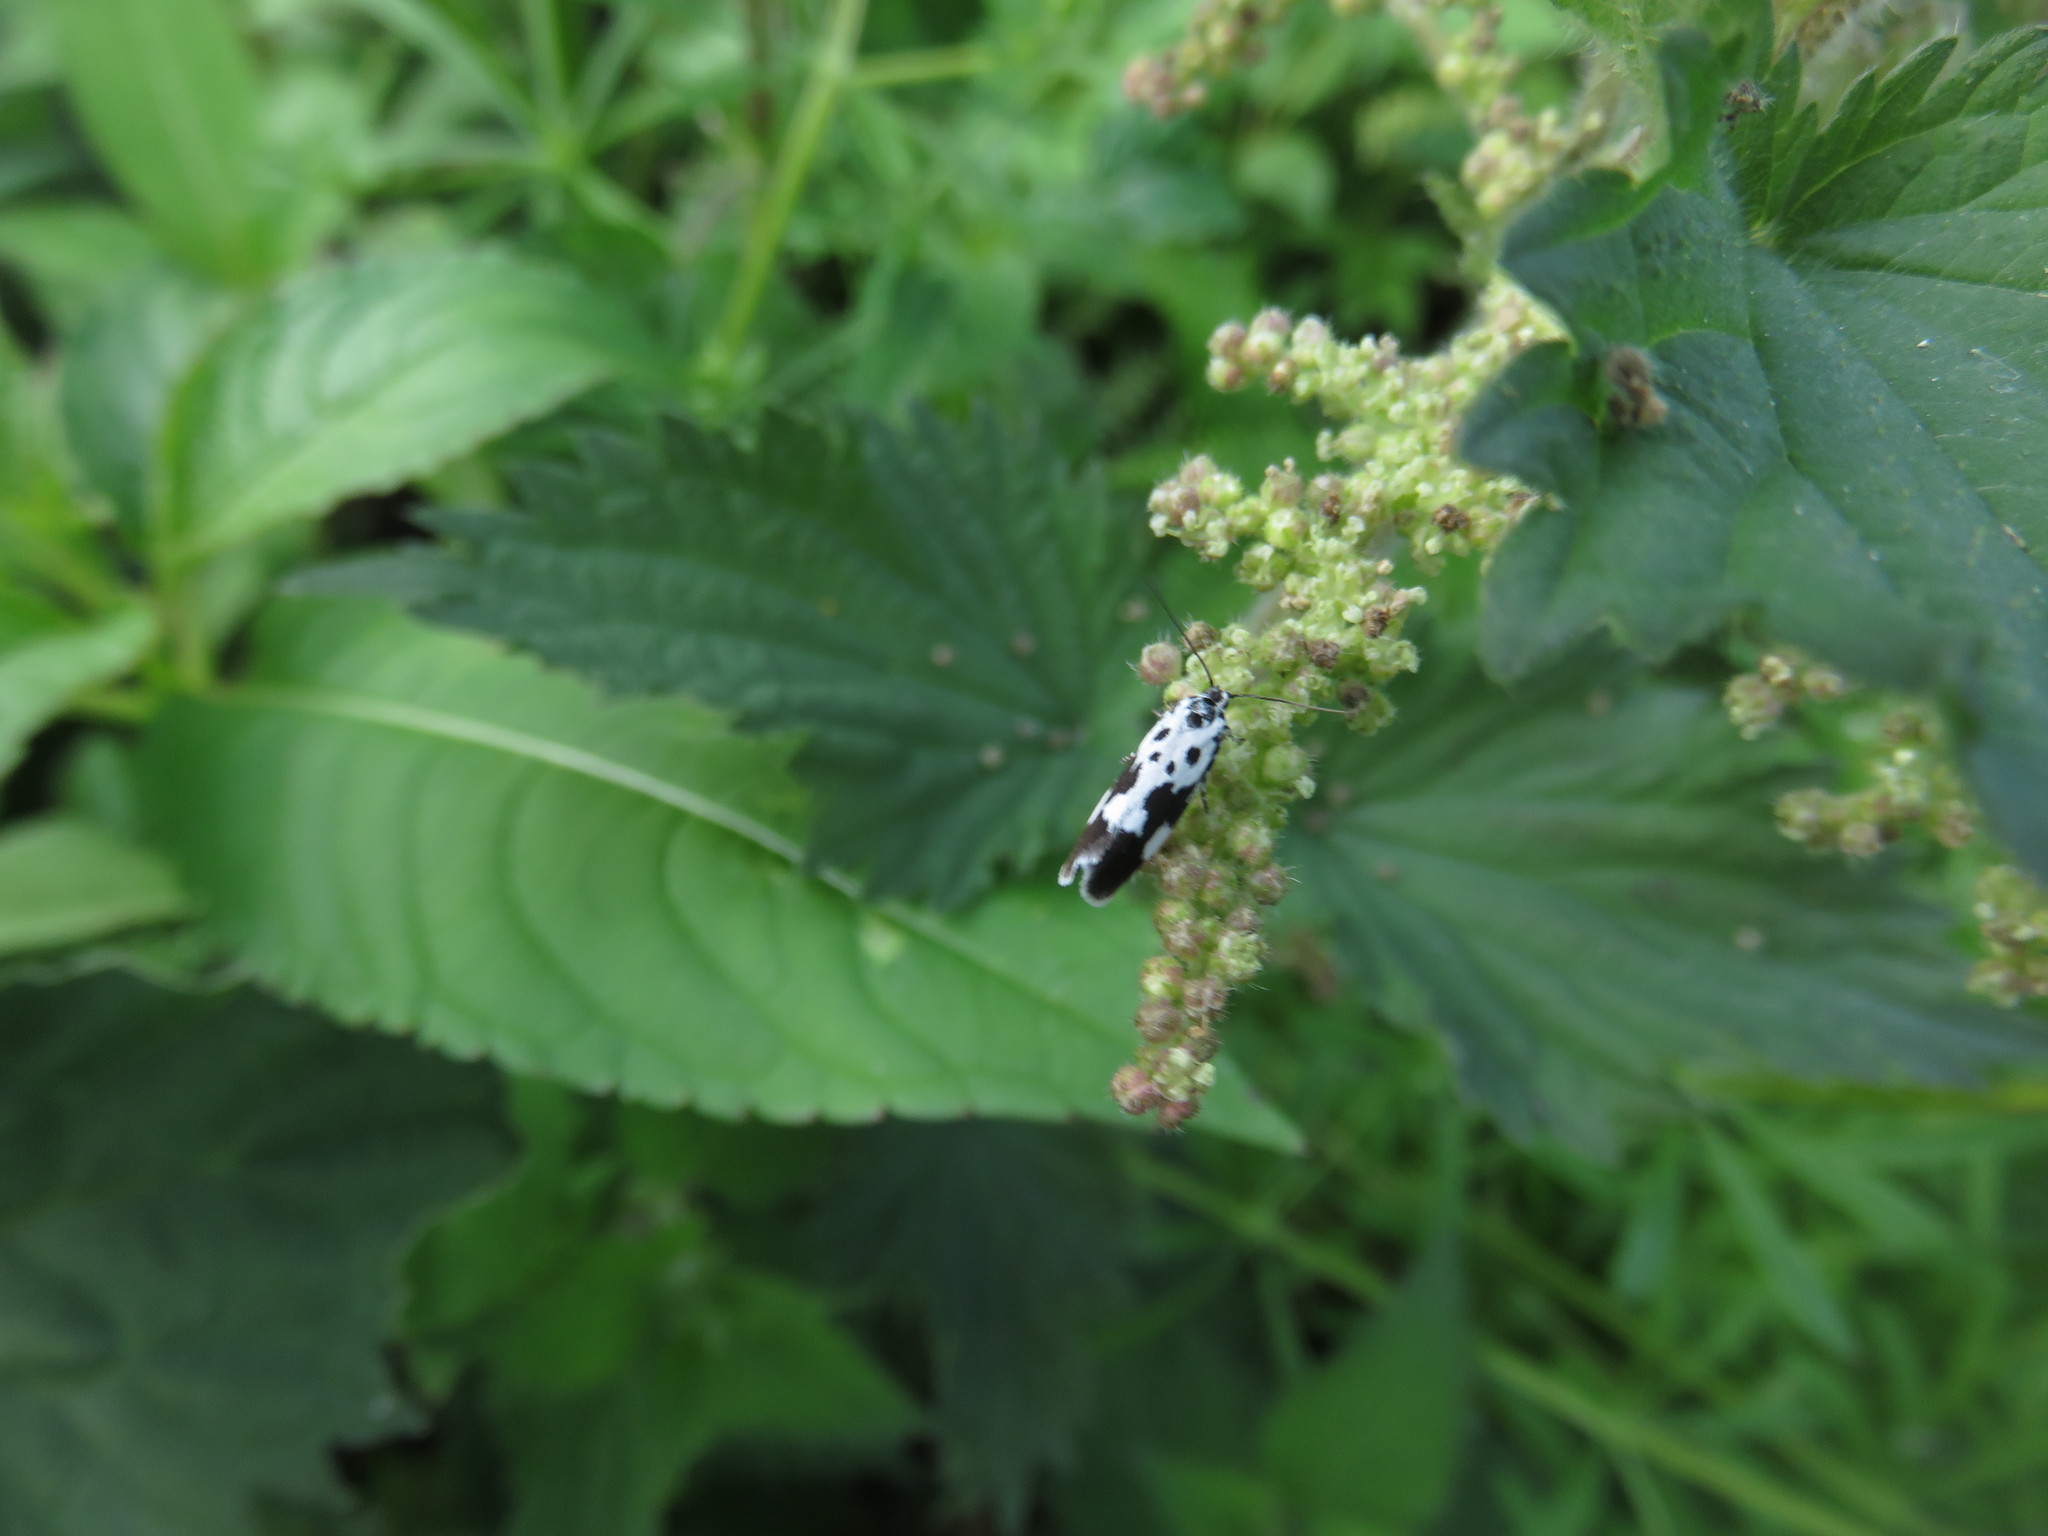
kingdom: Animalia
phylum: Arthropoda
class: Insecta
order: Lepidoptera
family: Ethmiidae
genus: Ethmia
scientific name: Ethmia quadrillella
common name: Comfrey ermel
